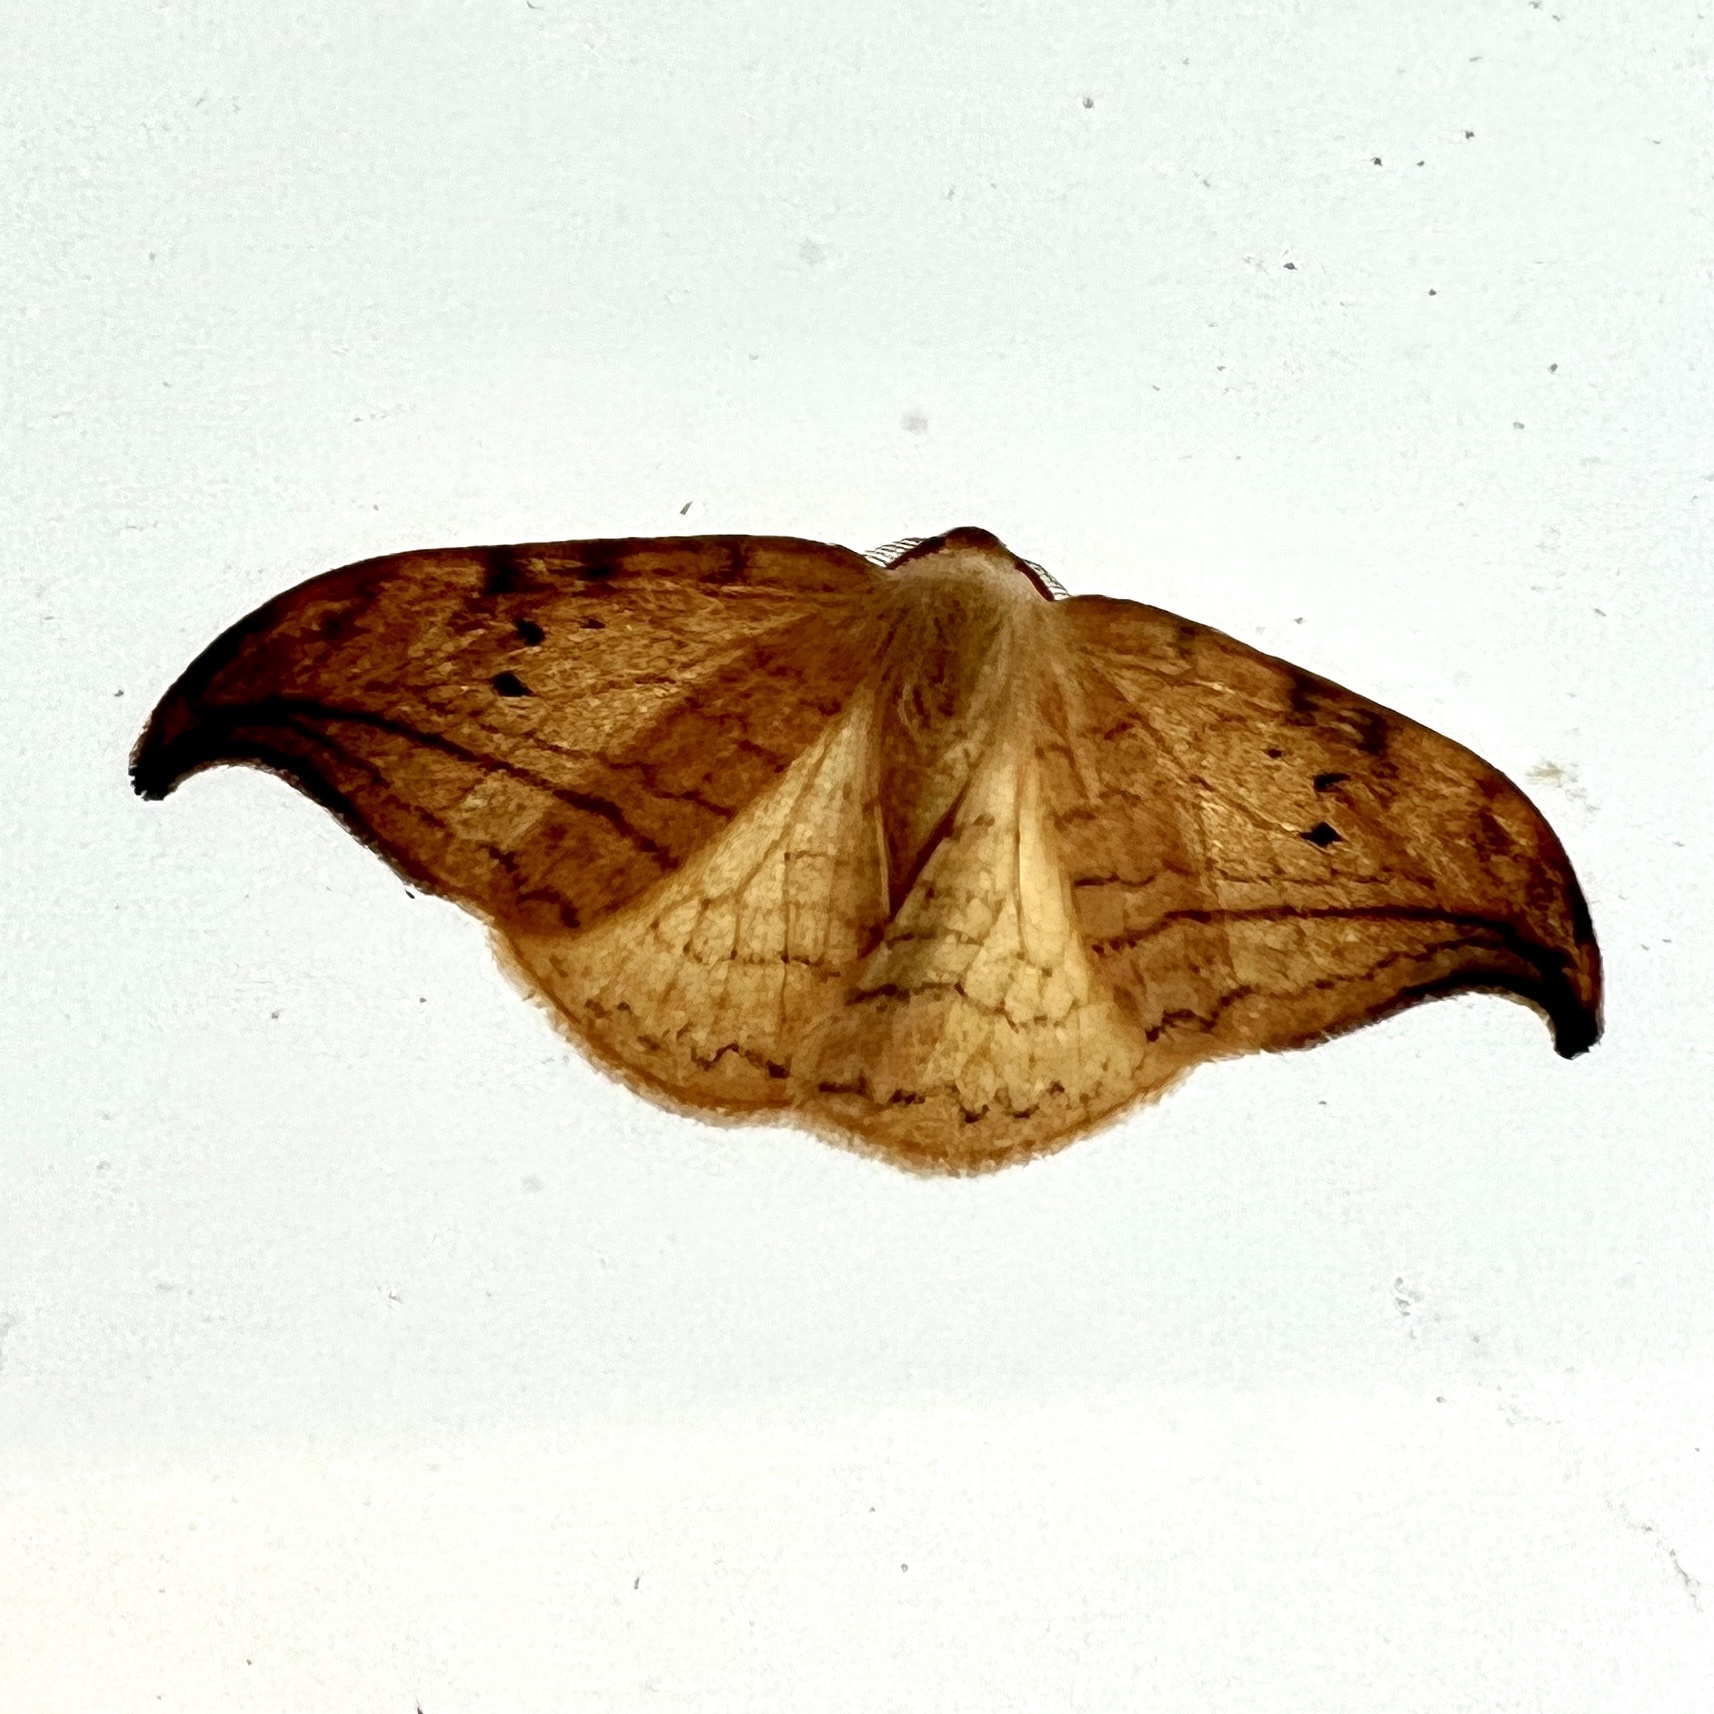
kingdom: Animalia
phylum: Arthropoda
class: Insecta
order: Lepidoptera
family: Drepanidae
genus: Drepana
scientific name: Drepana arcuata
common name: Arched hooktip moth
